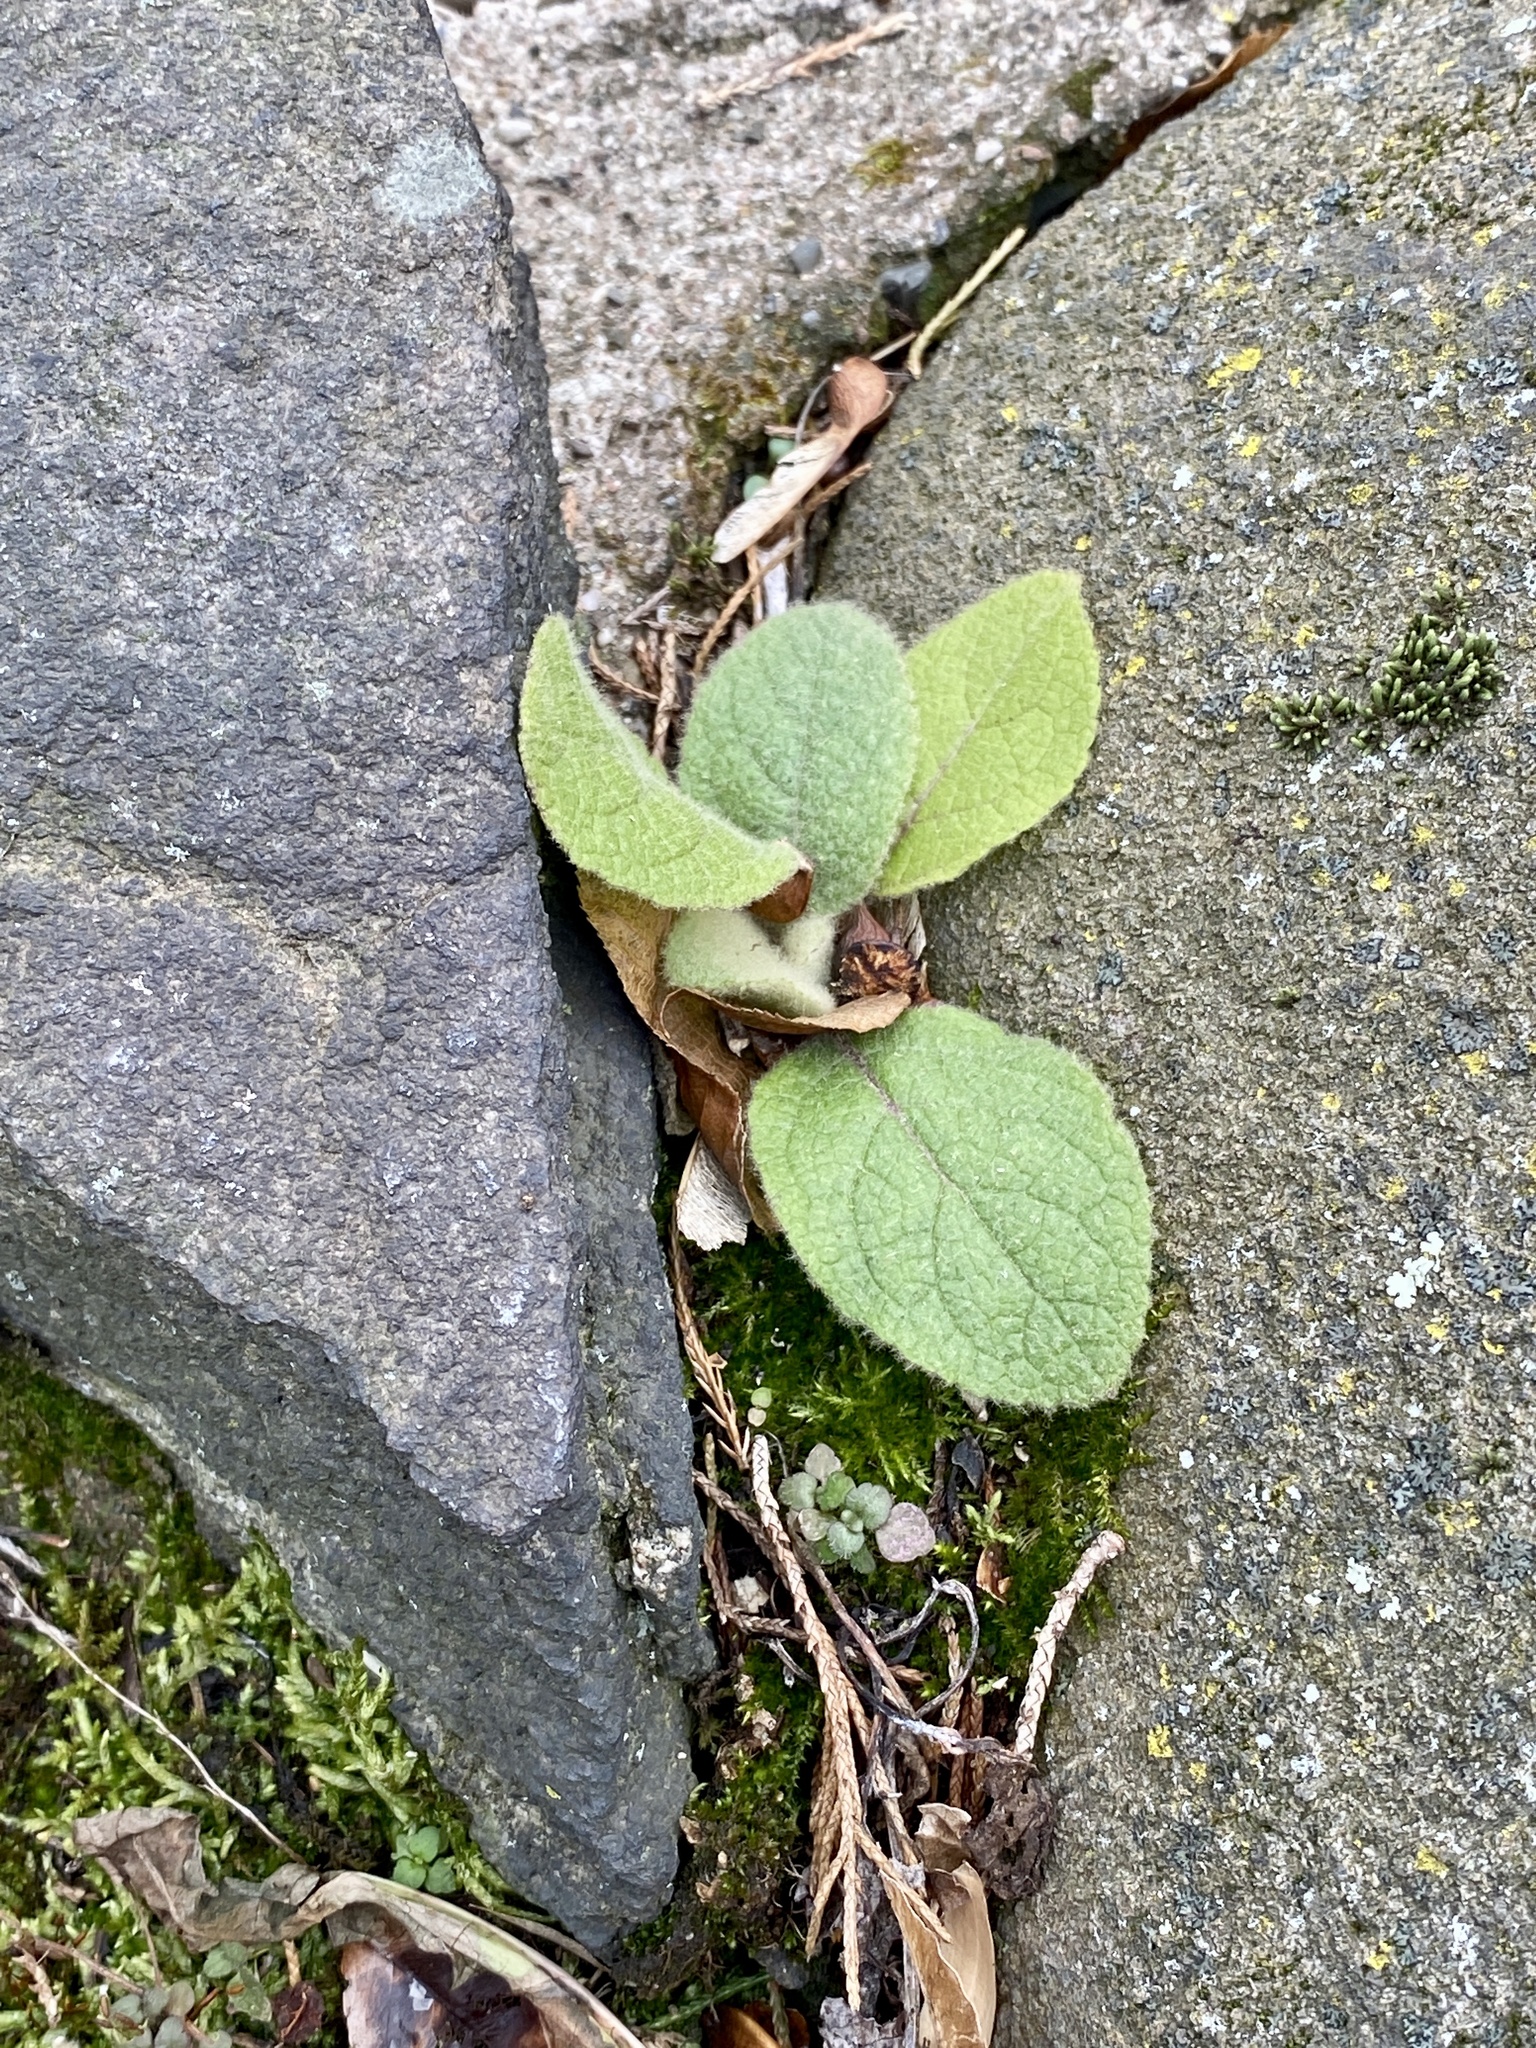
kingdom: Plantae
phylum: Tracheophyta
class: Magnoliopsida
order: Lamiales
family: Scrophulariaceae
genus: Verbascum
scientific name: Verbascum thapsus
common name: Common mullein
